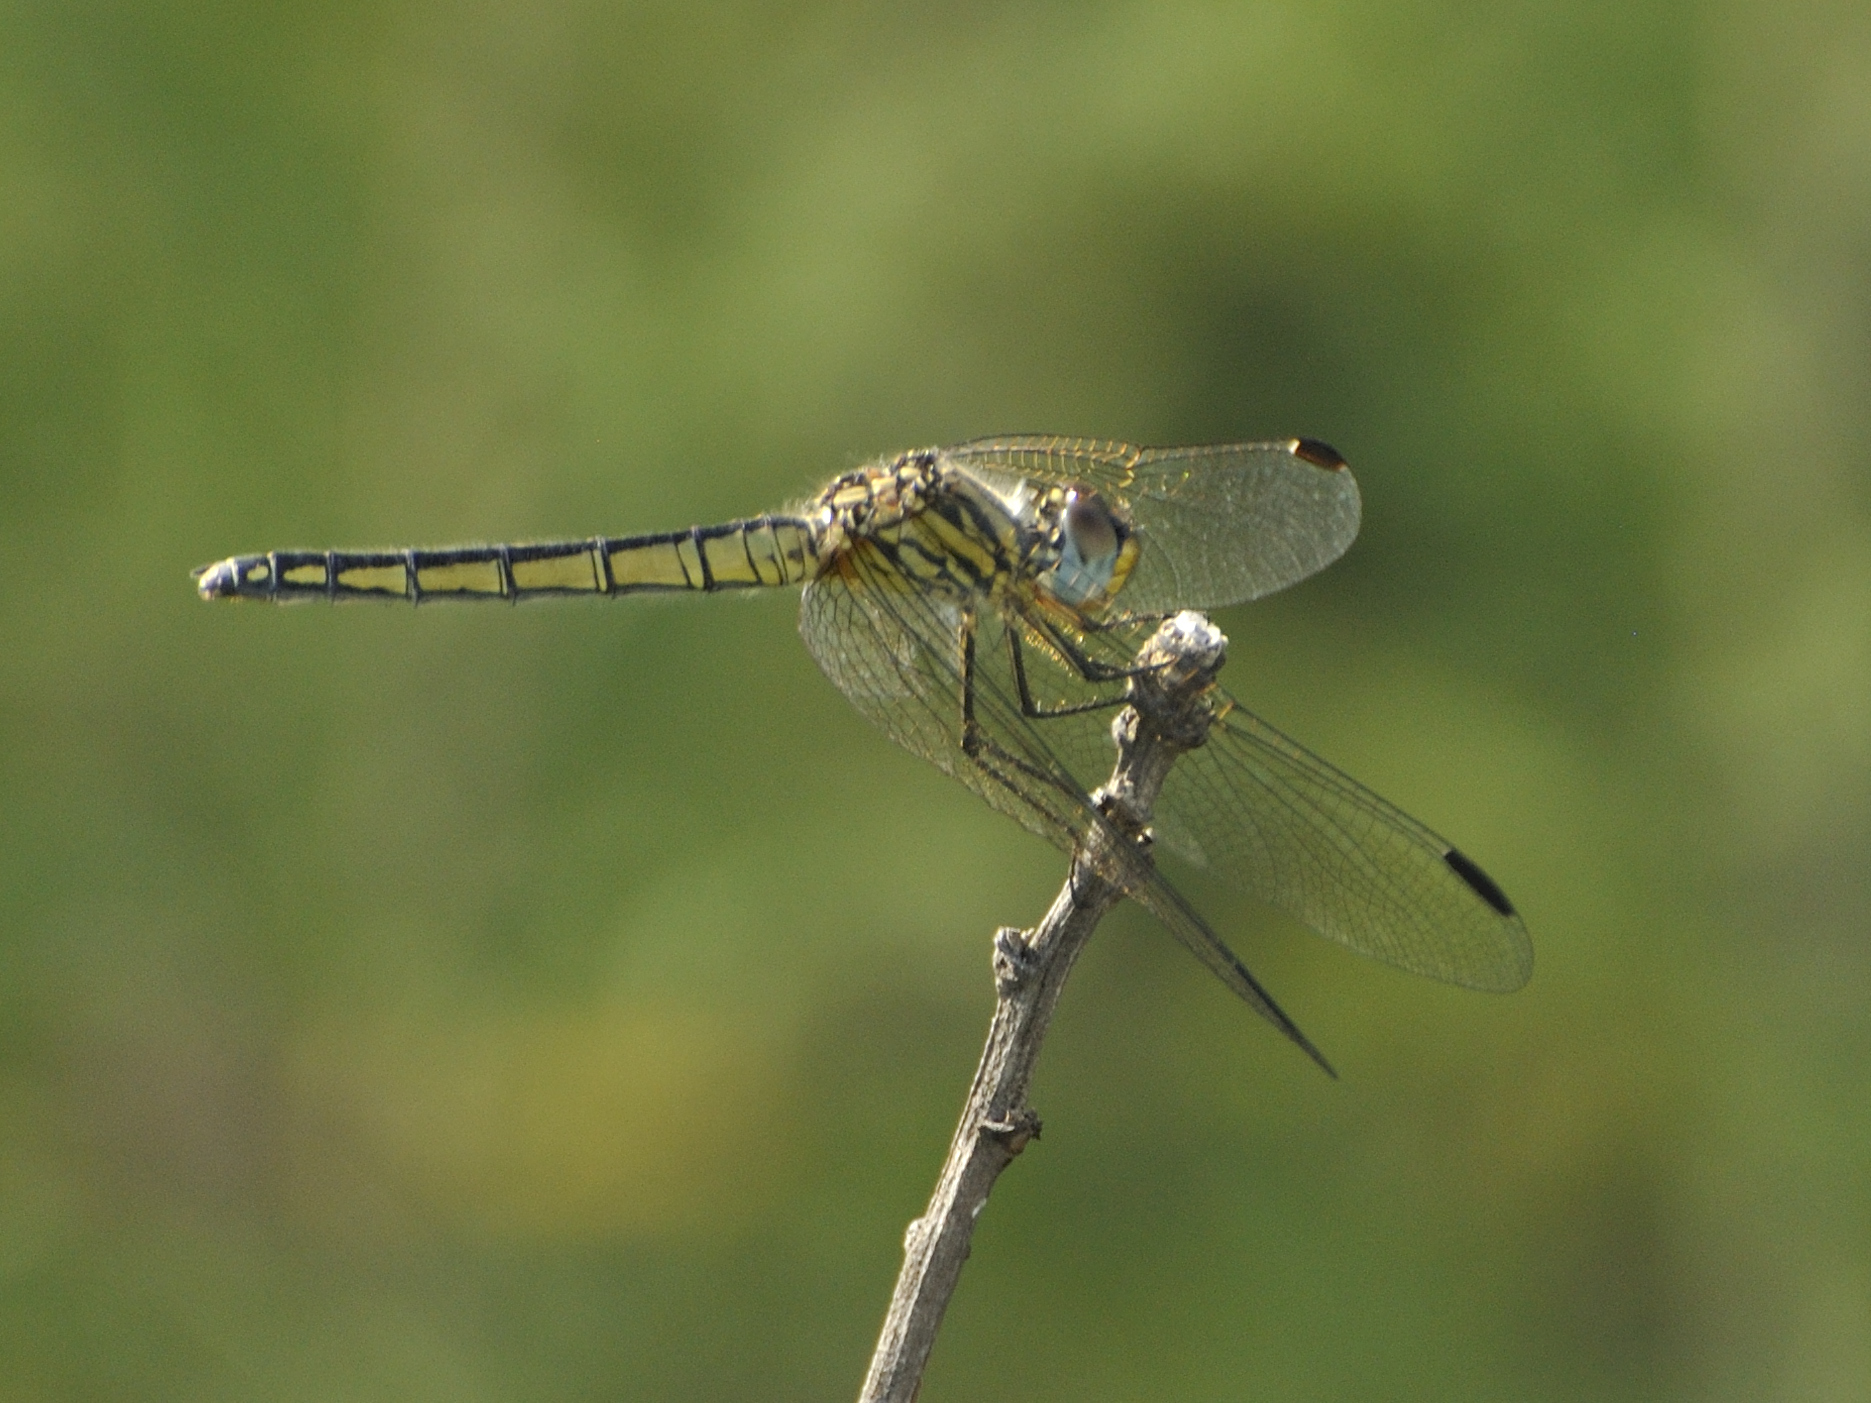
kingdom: Animalia
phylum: Arthropoda
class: Insecta
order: Odonata
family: Libellulidae
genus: Trithemis
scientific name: Trithemis dorsalis
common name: Highland dropwing
